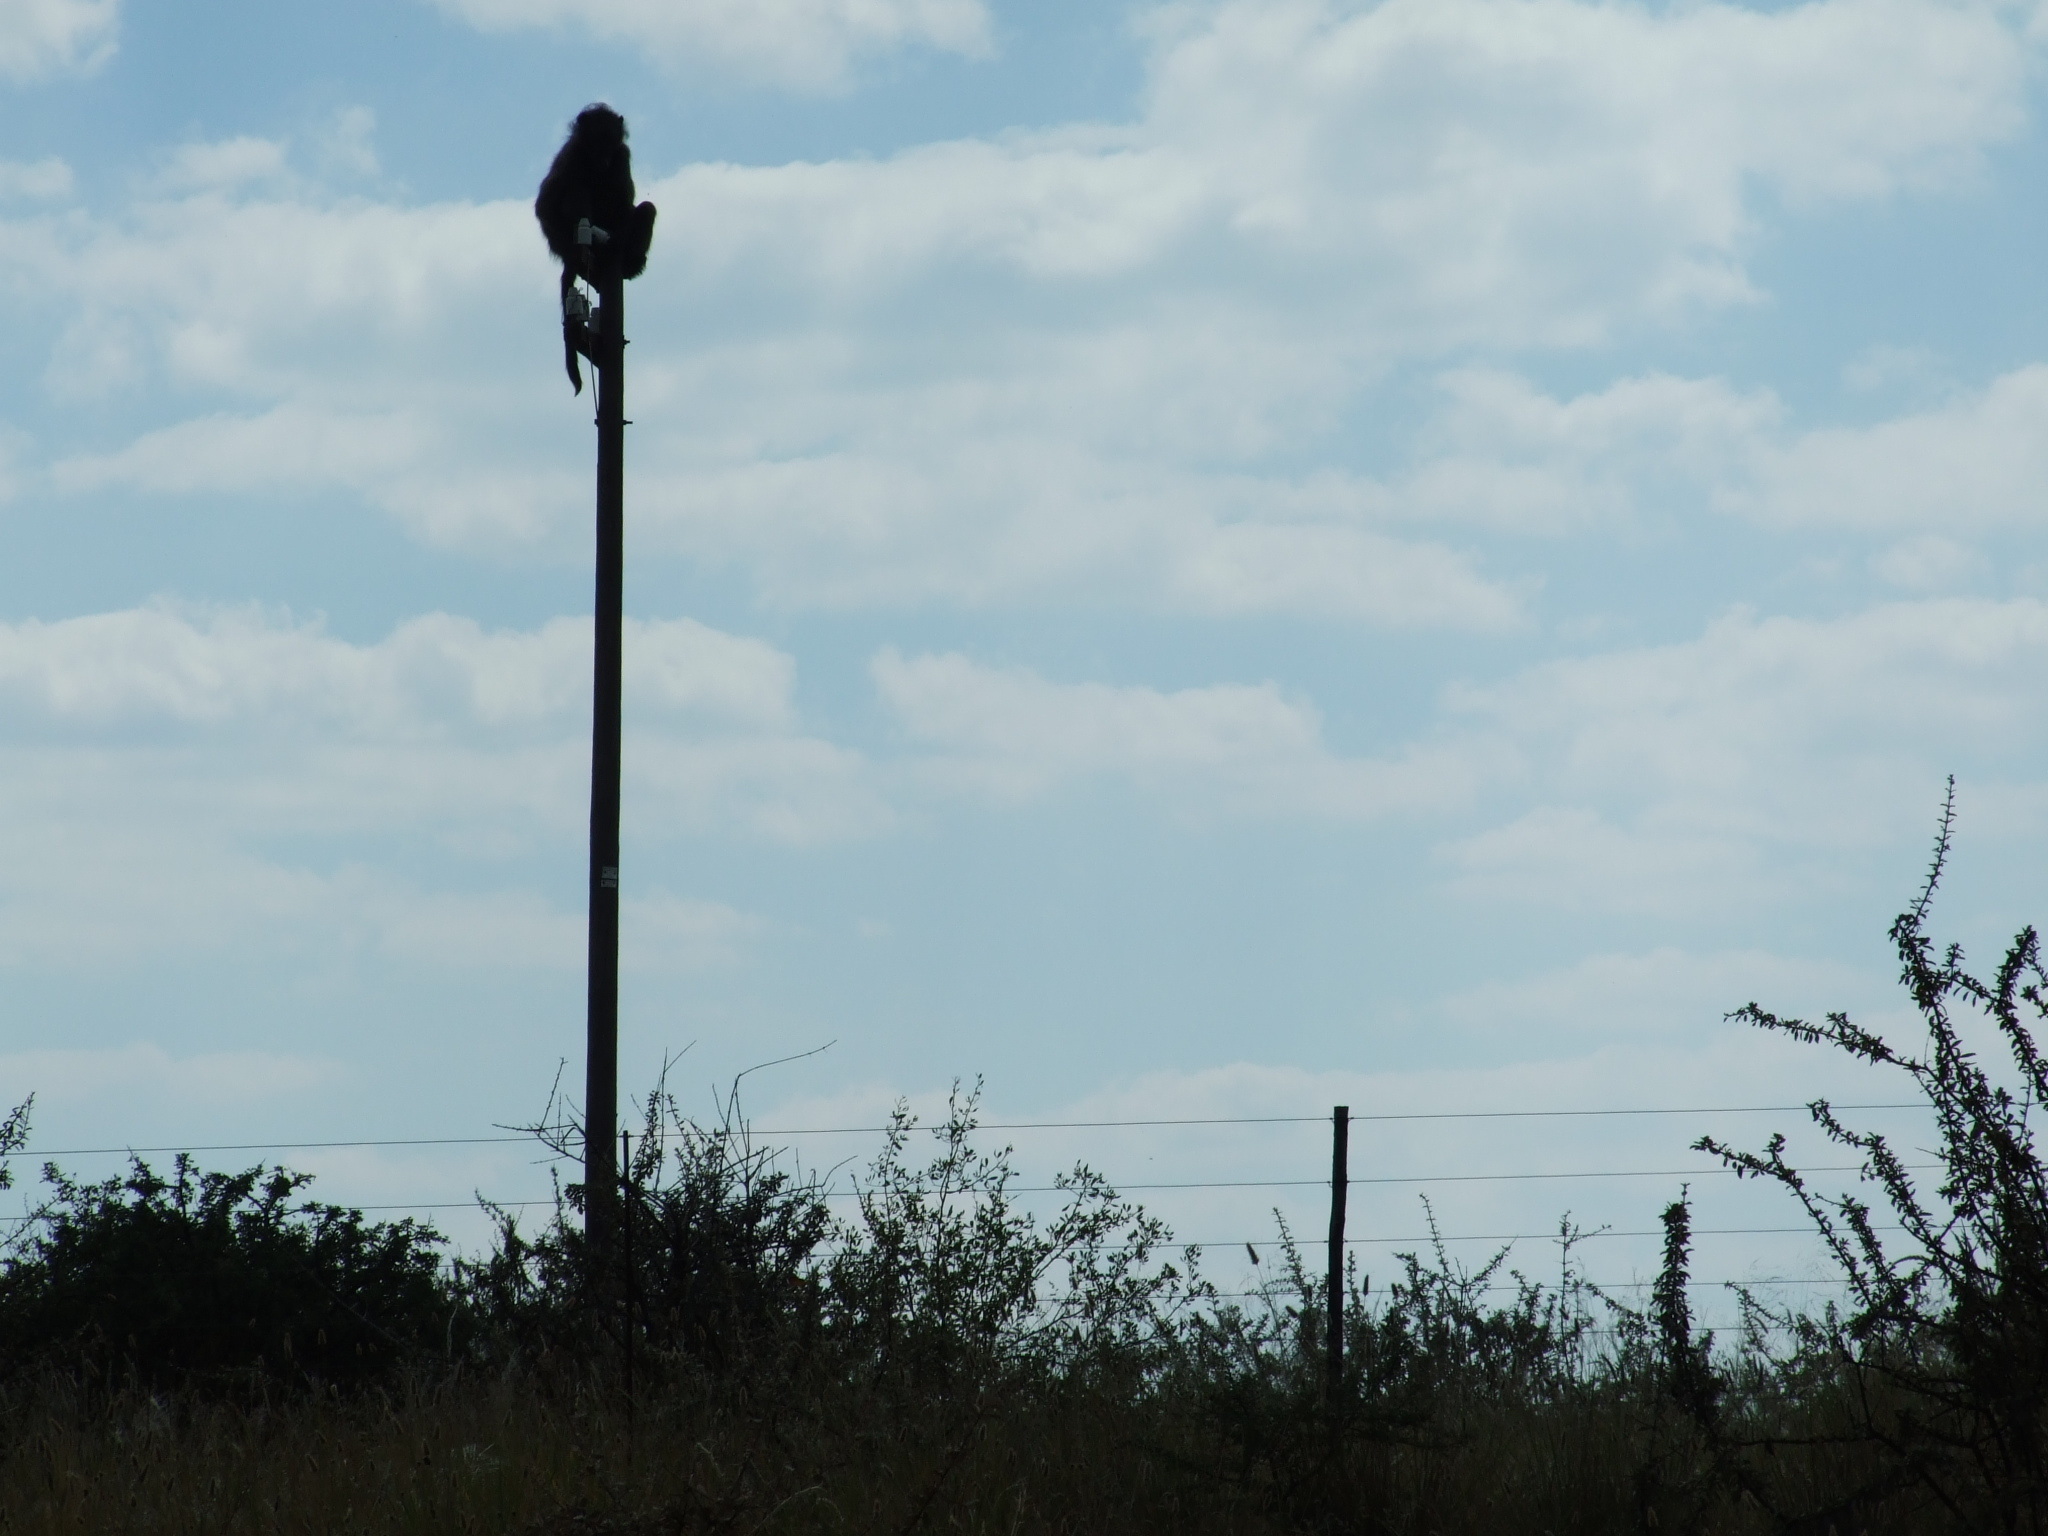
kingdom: Animalia
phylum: Chordata
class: Mammalia
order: Primates
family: Cercopithecidae
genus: Papio
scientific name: Papio ursinus
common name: Chacma baboon
